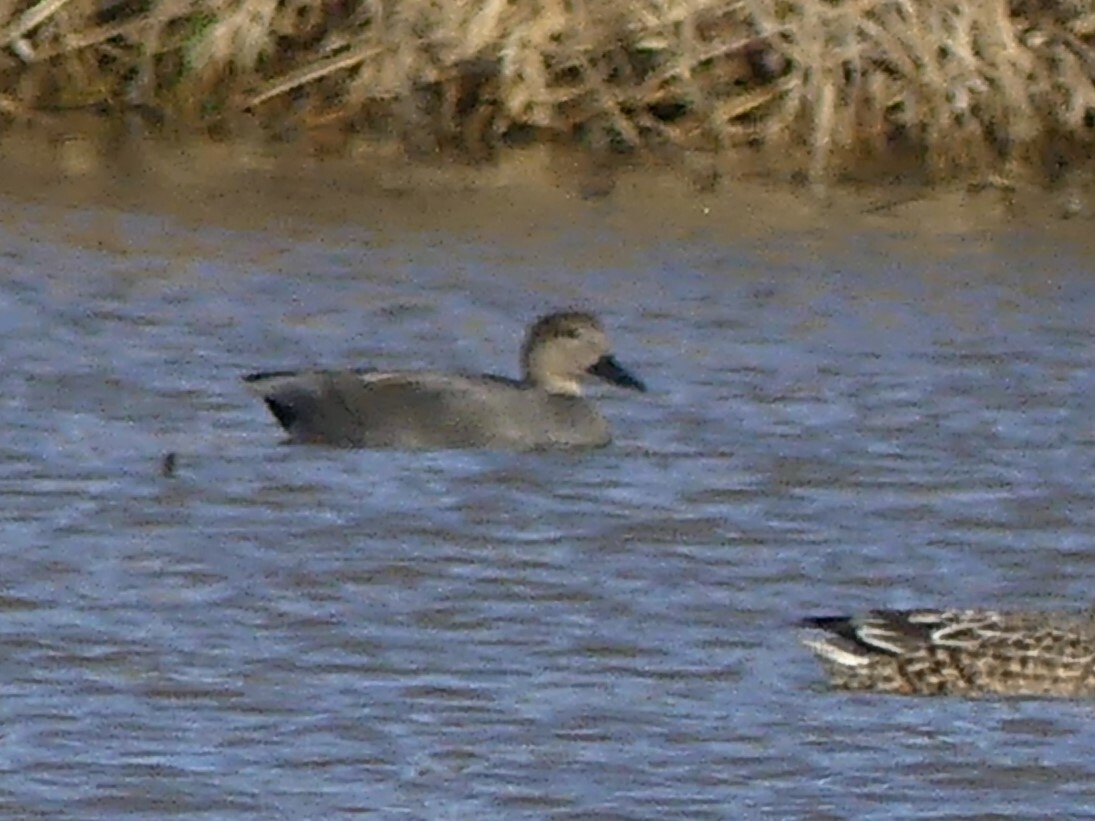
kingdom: Animalia
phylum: Chordata
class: Aves
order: Anseriformes
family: Anatidae
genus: Mareca
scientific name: Mareca strepera
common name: Gadwall
